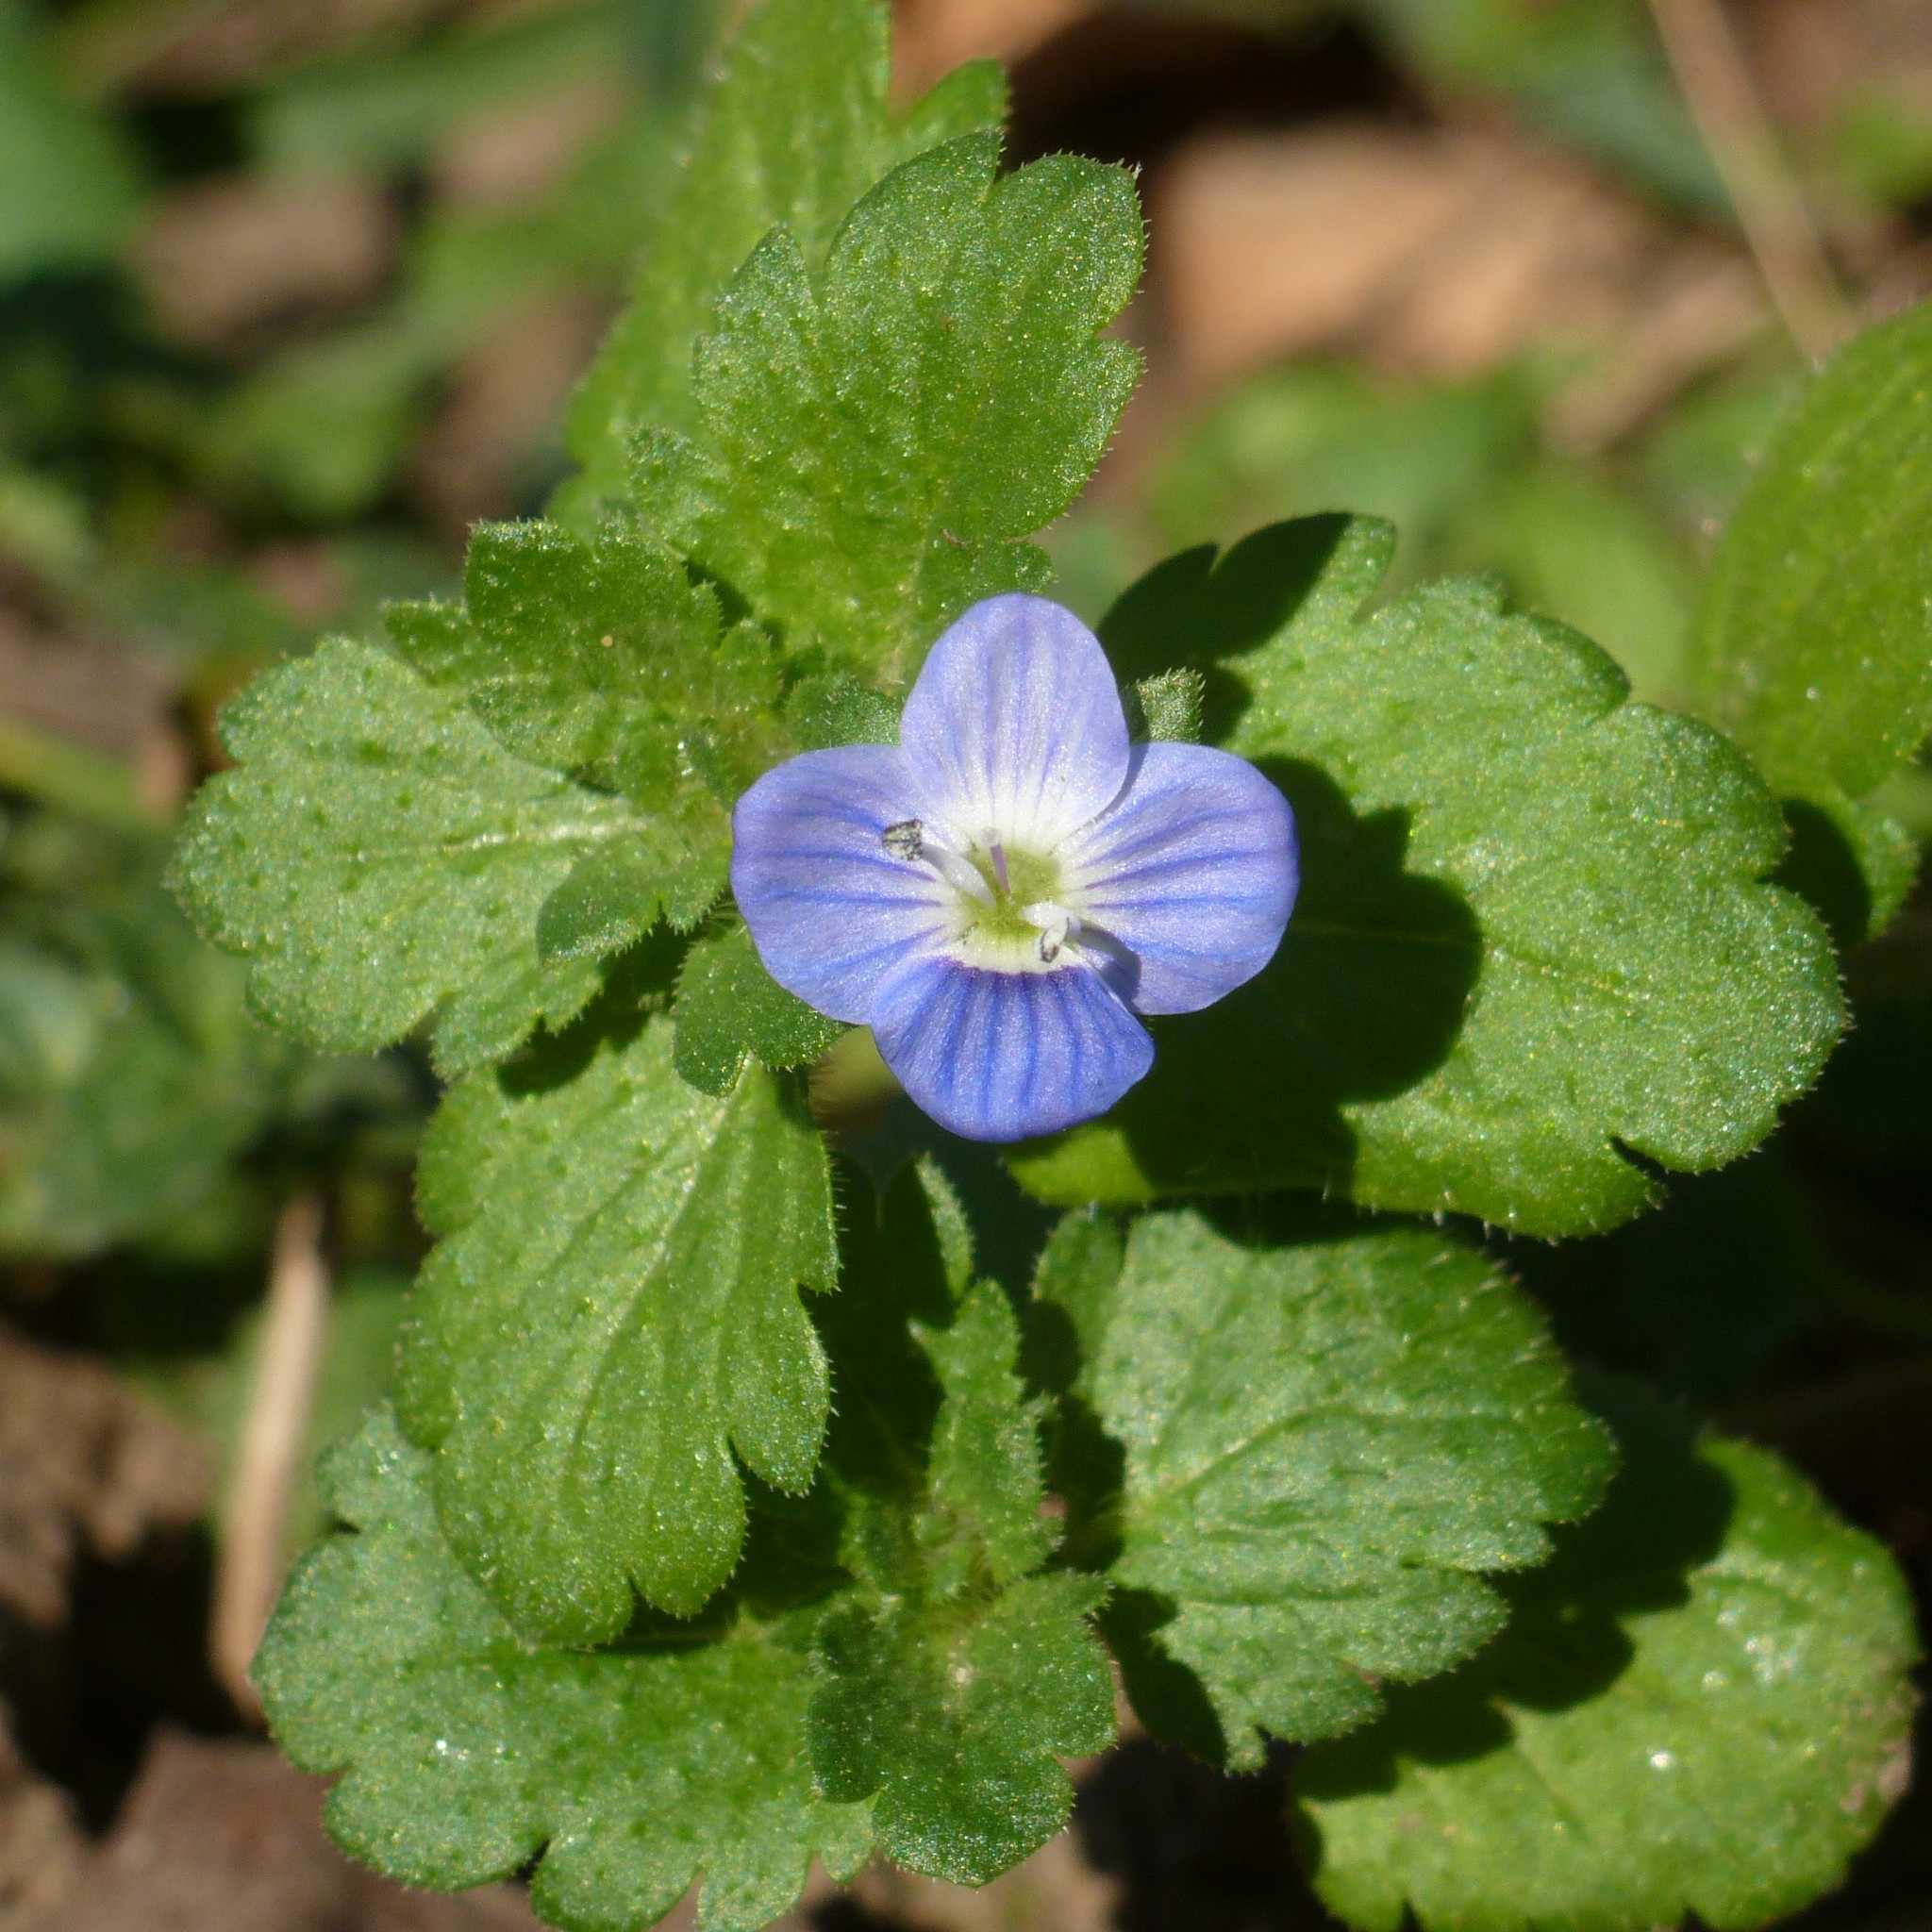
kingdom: Plantae
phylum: Tracheophyta
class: Magnoliopsida
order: Lamiales
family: Plantaginaceae
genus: Veronica
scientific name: Veronica persica
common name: Common field-speedwell
